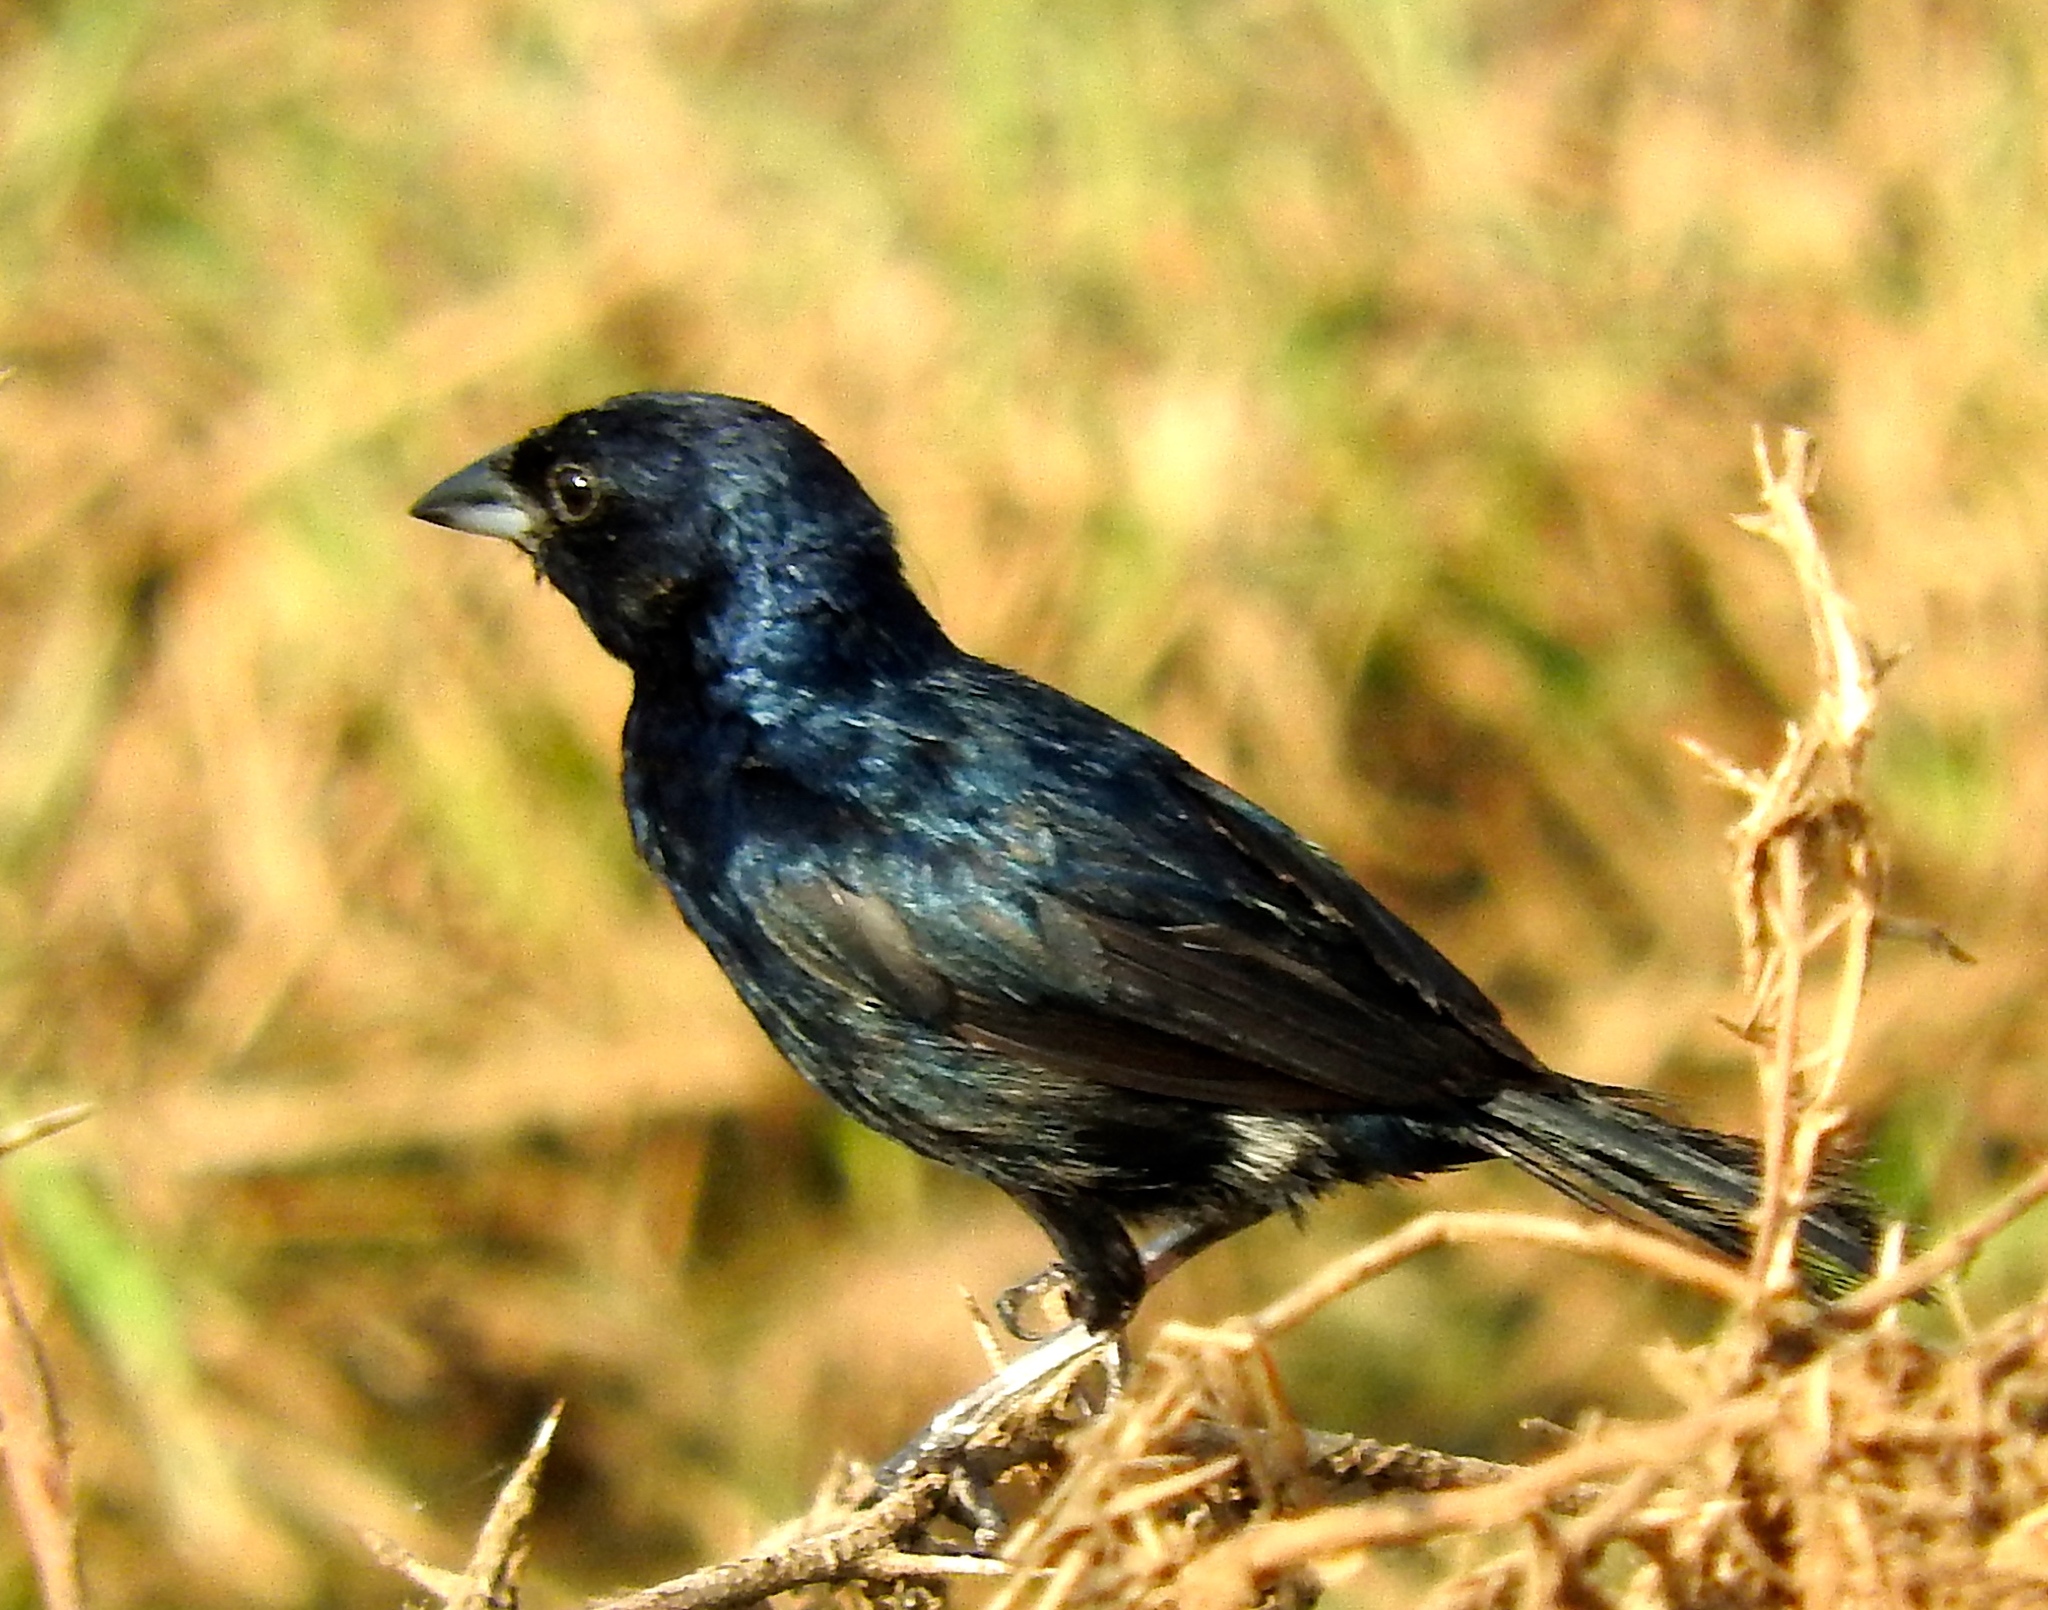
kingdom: Animalia
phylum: Chordata
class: Aves
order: Passeriformes
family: Thraupidae
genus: Volatinia
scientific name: Volatinia jacarina
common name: Blue-black grassquit
